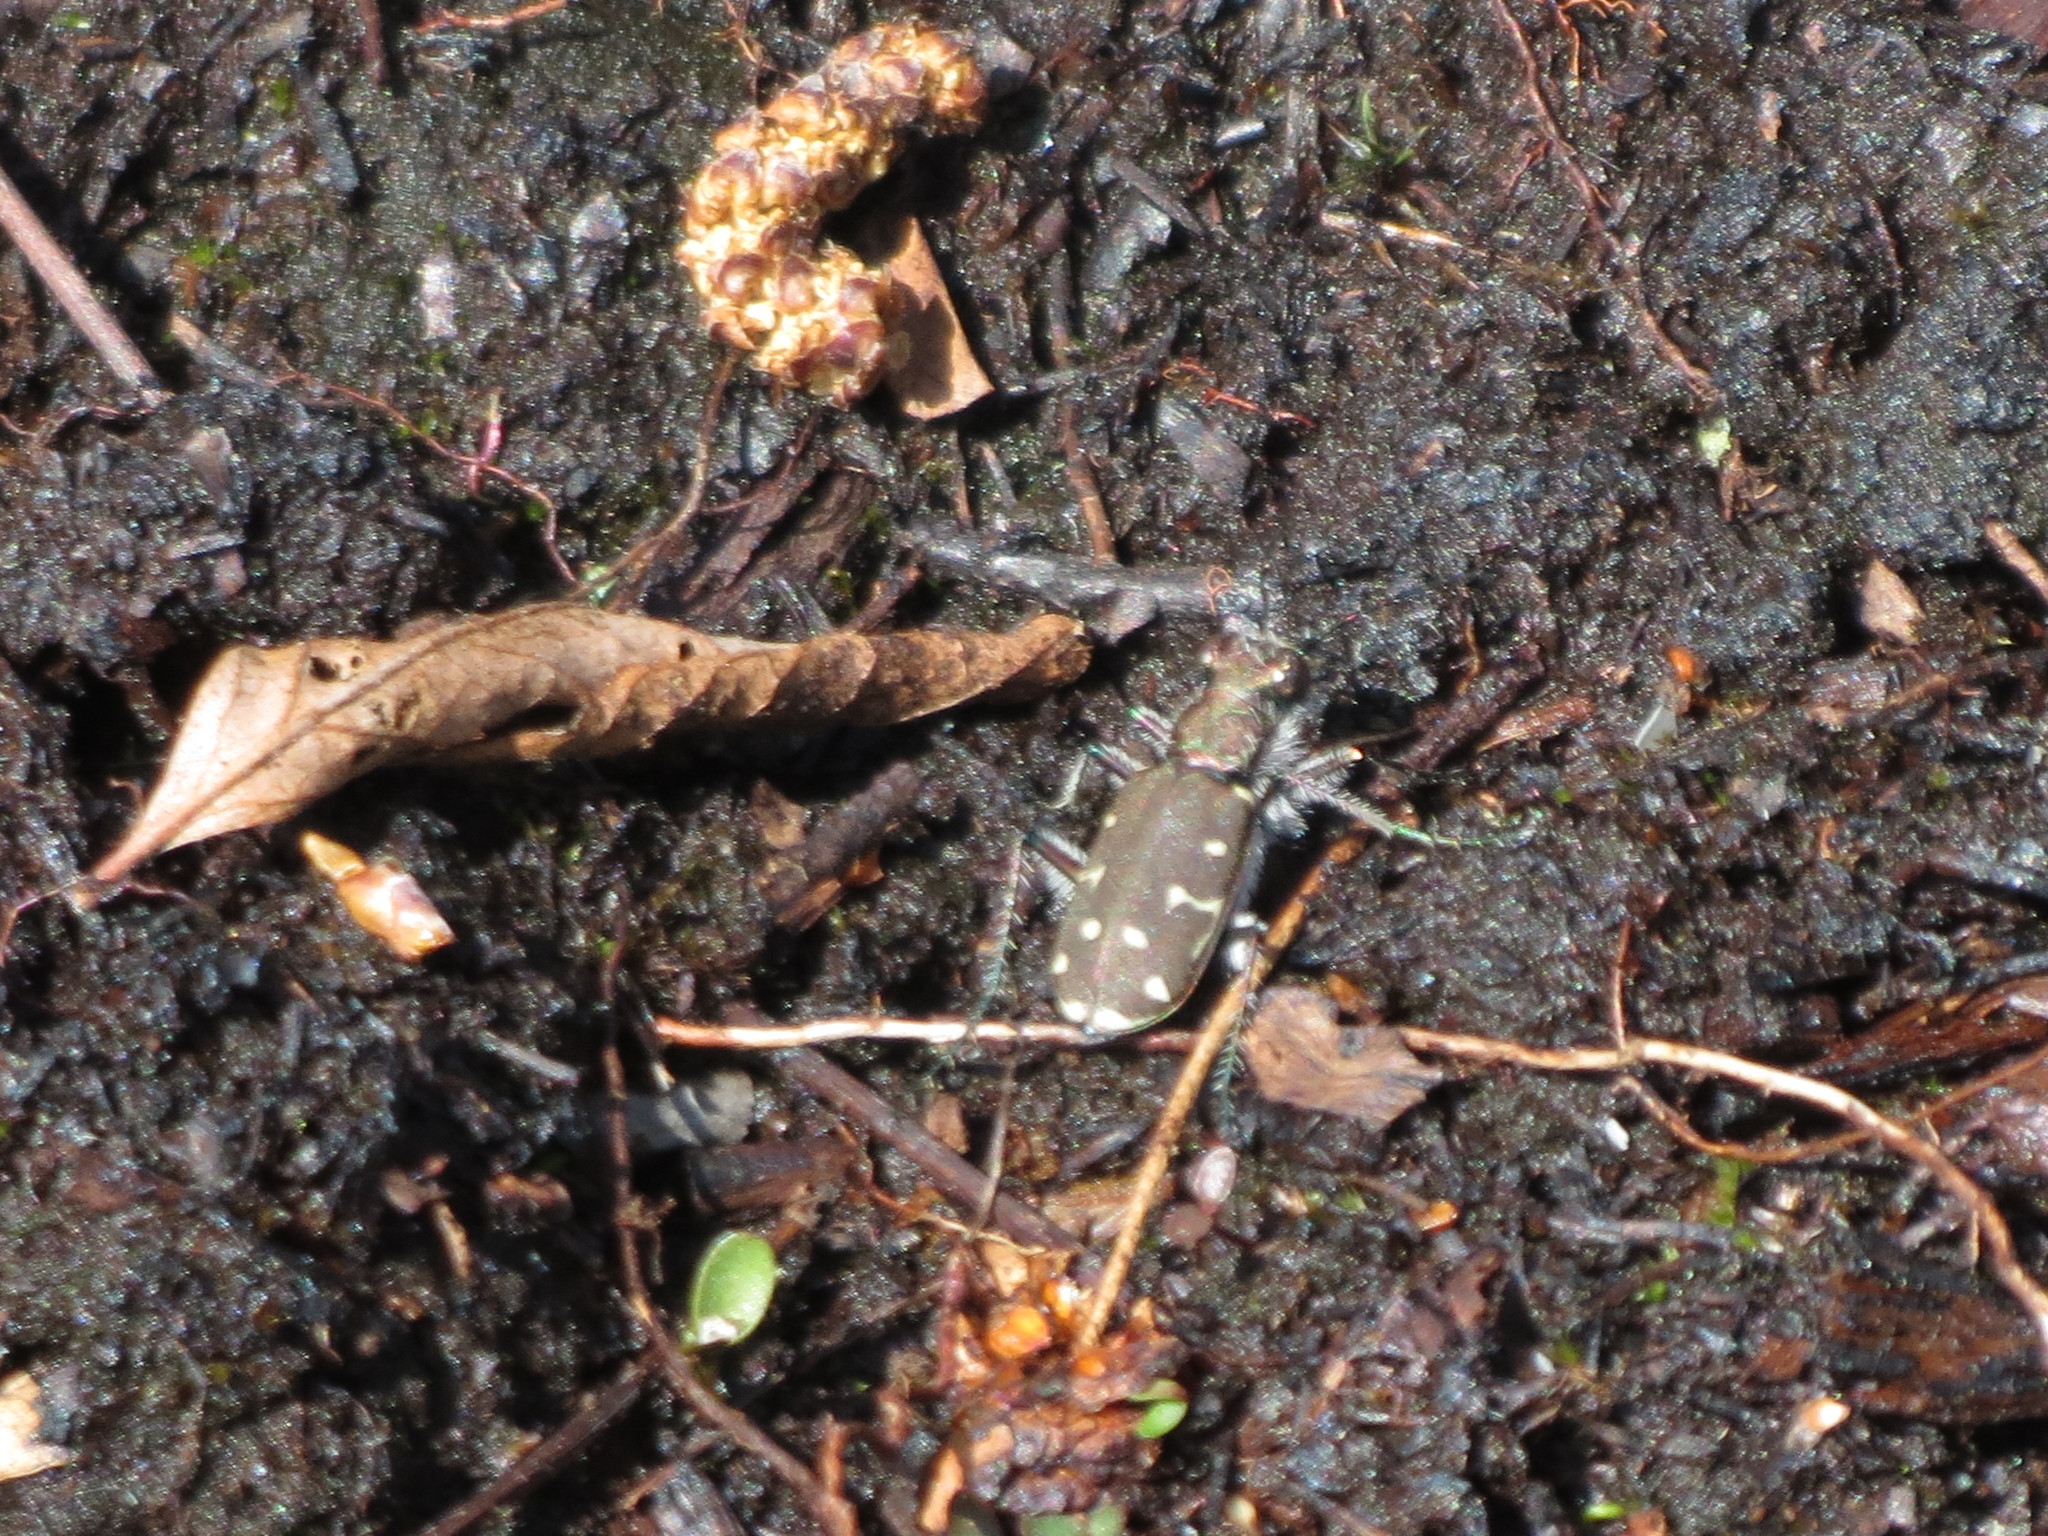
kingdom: Animalia
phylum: Arthropoda
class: Insecta
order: Coleoptera
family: Carabidae
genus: Cicindela
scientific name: Cicindela duodecimguttata
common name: Twelve-spotted tiger beetle
